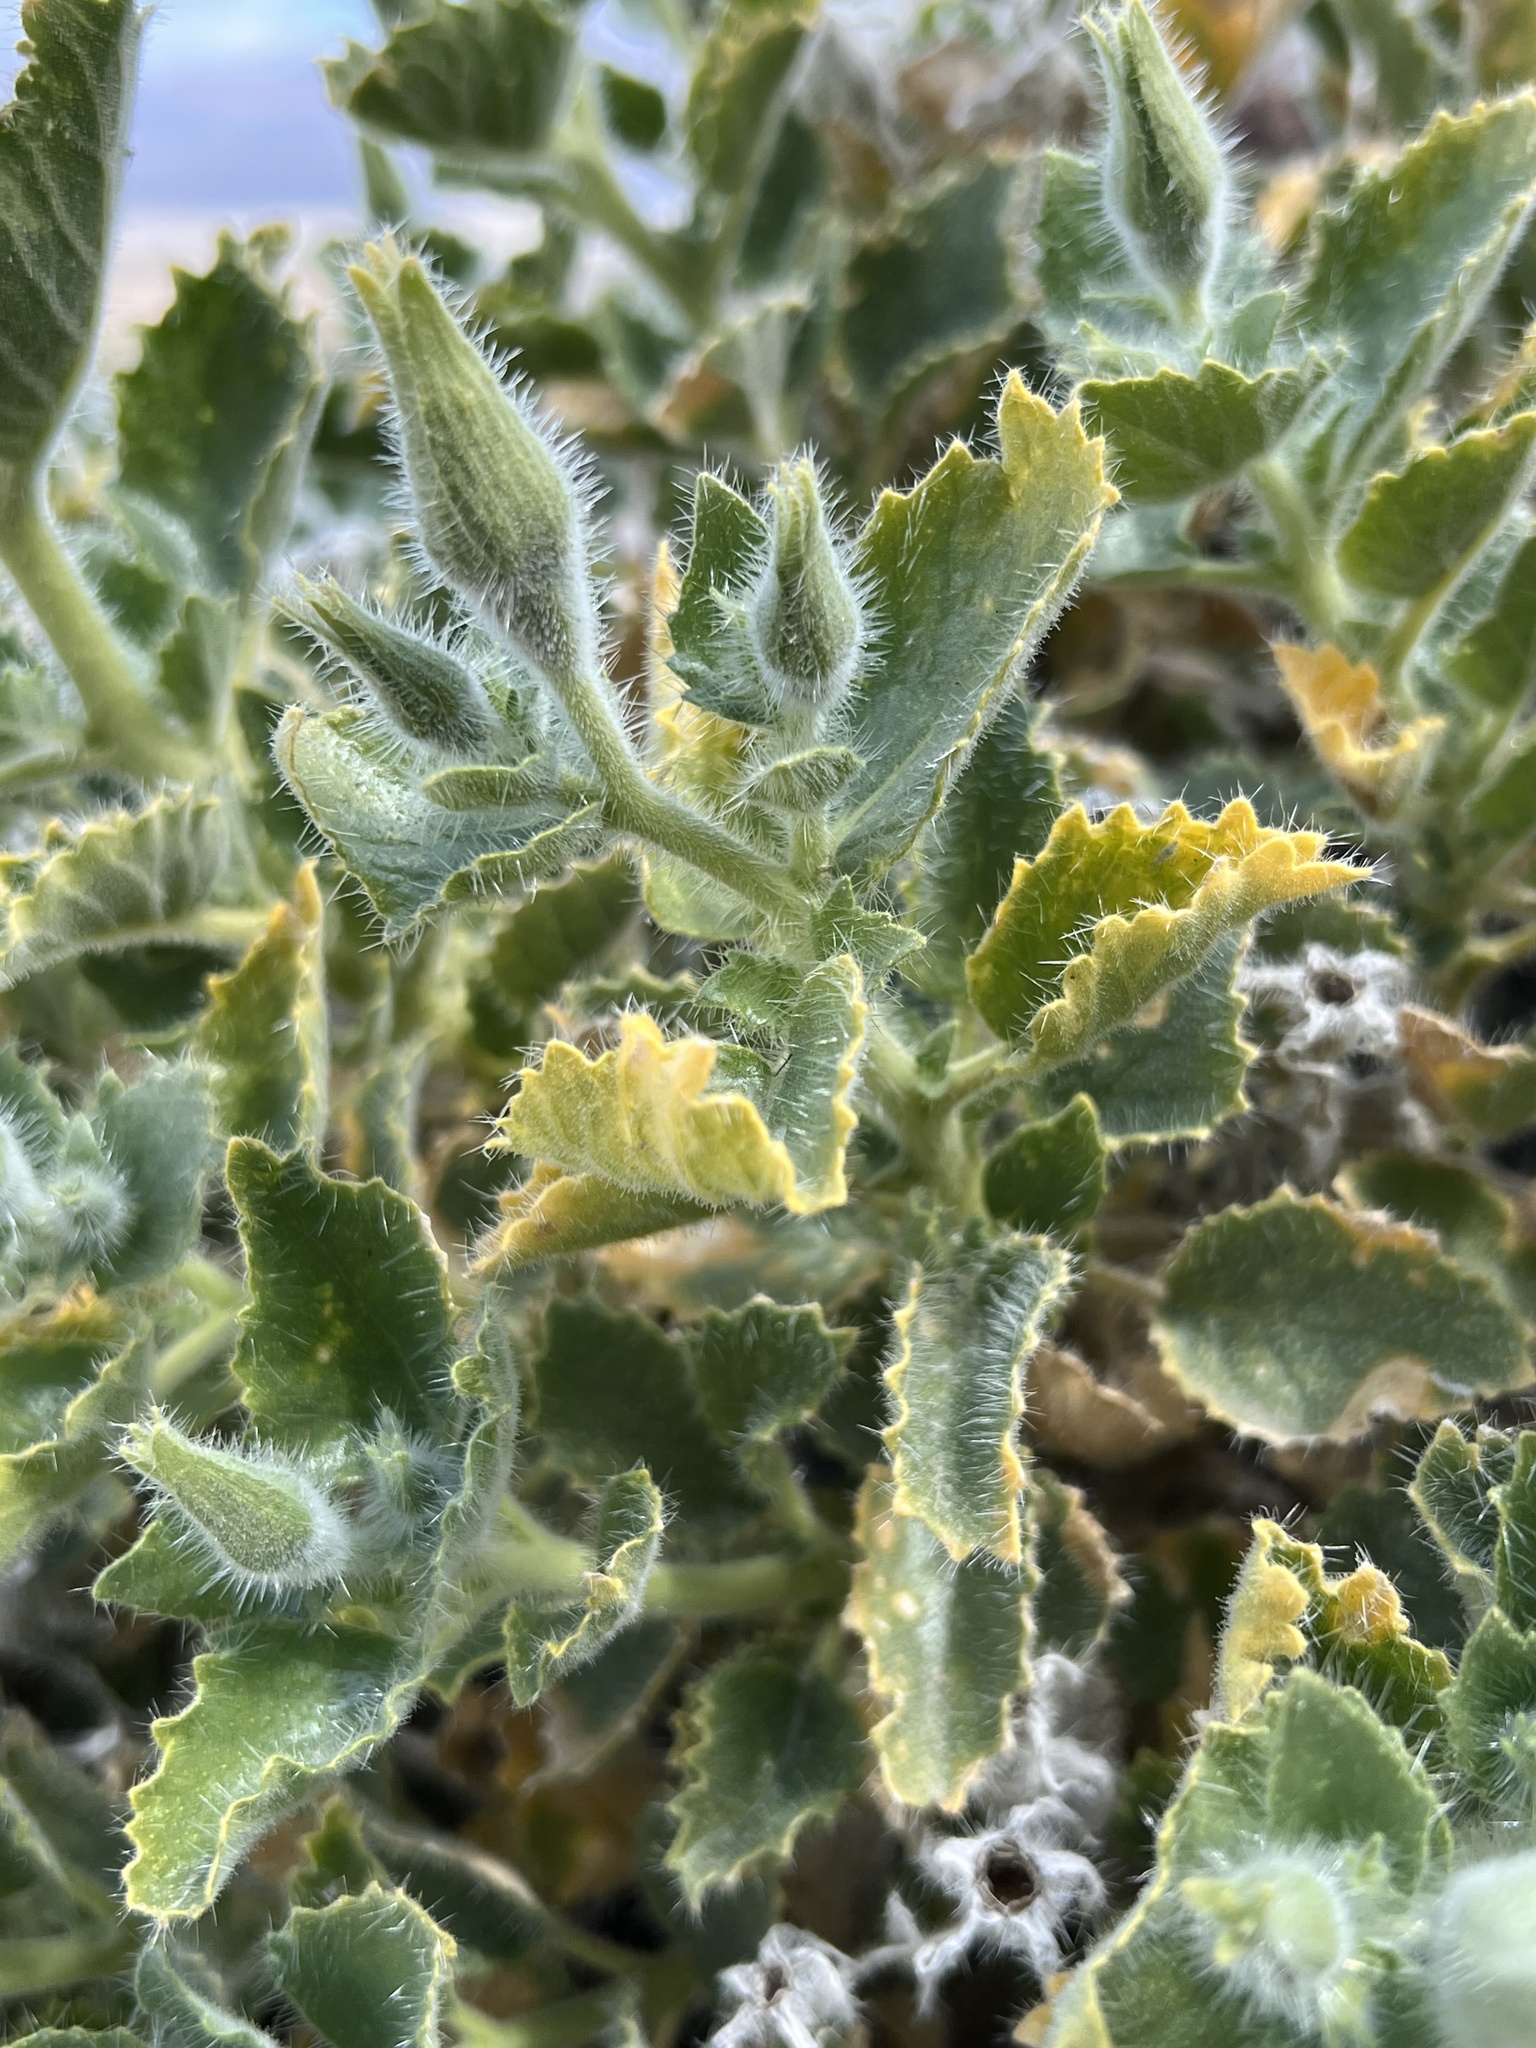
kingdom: Plantae
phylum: Tracheophyta
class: Magnoliopsida
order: Cornales
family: Loasaceae
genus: Eucnide
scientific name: Eucnide urens
